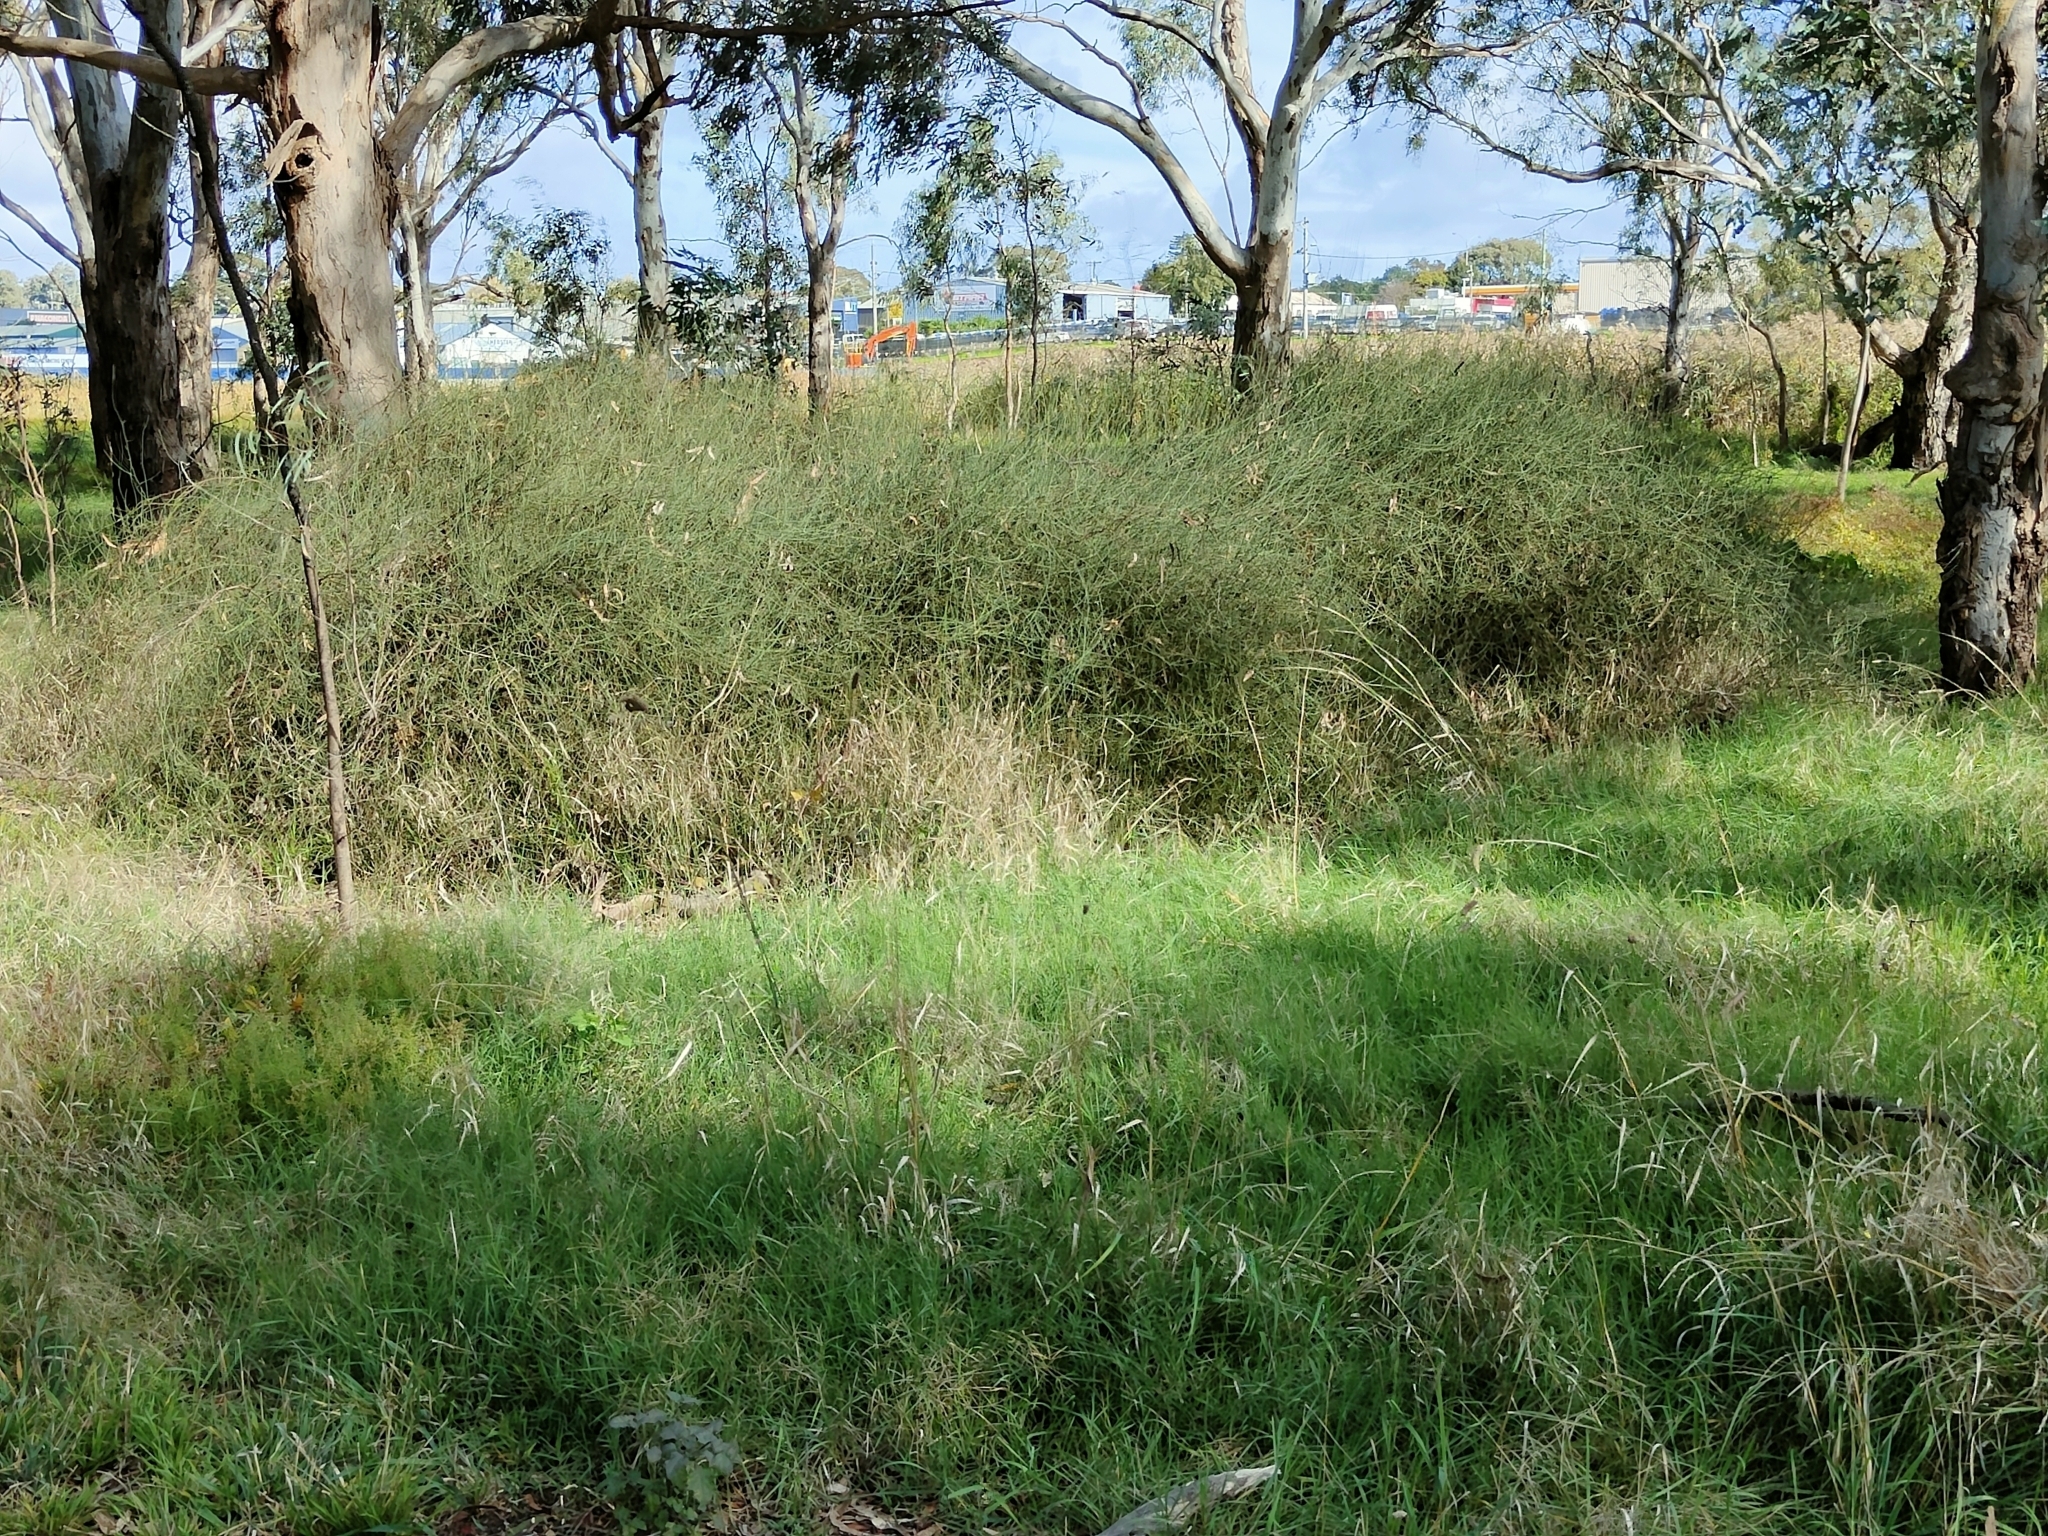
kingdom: Plantae
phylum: Tracheophyta
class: Magnoliopsida
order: Caryophyllales
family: Polygonaceae
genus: Duma
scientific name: Duma florulenta
